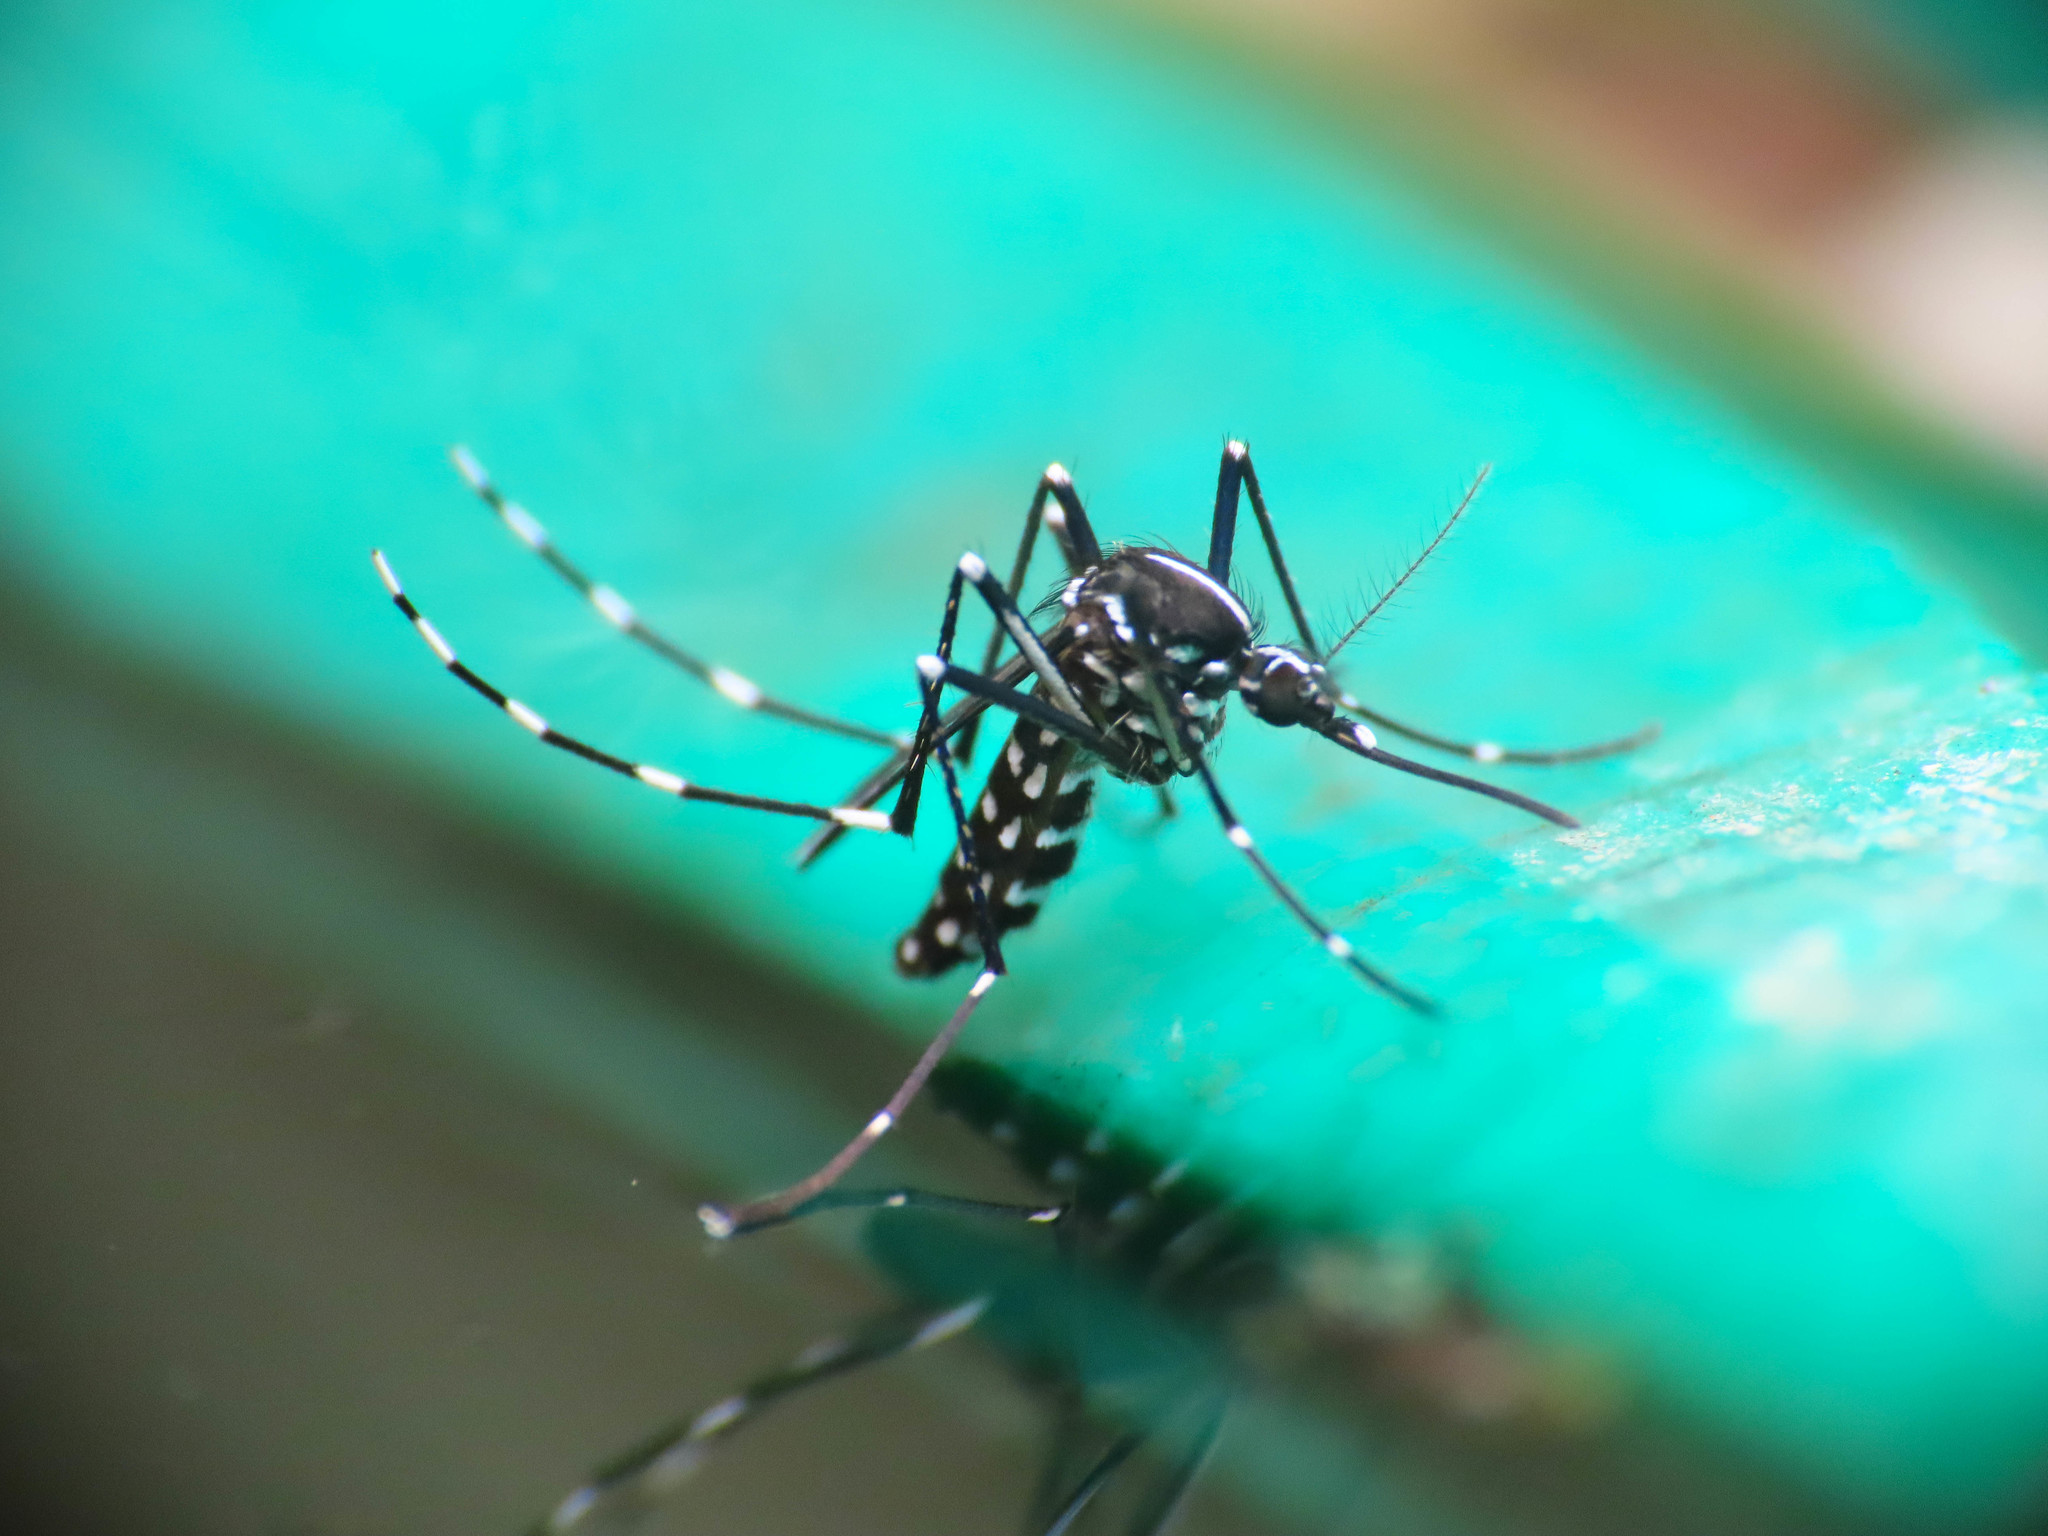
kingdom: Animalia
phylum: Arthropoda
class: Insecta
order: Diptera
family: Culicidae
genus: Aedes
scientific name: Aedes albopictus
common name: Tiger mosquito
